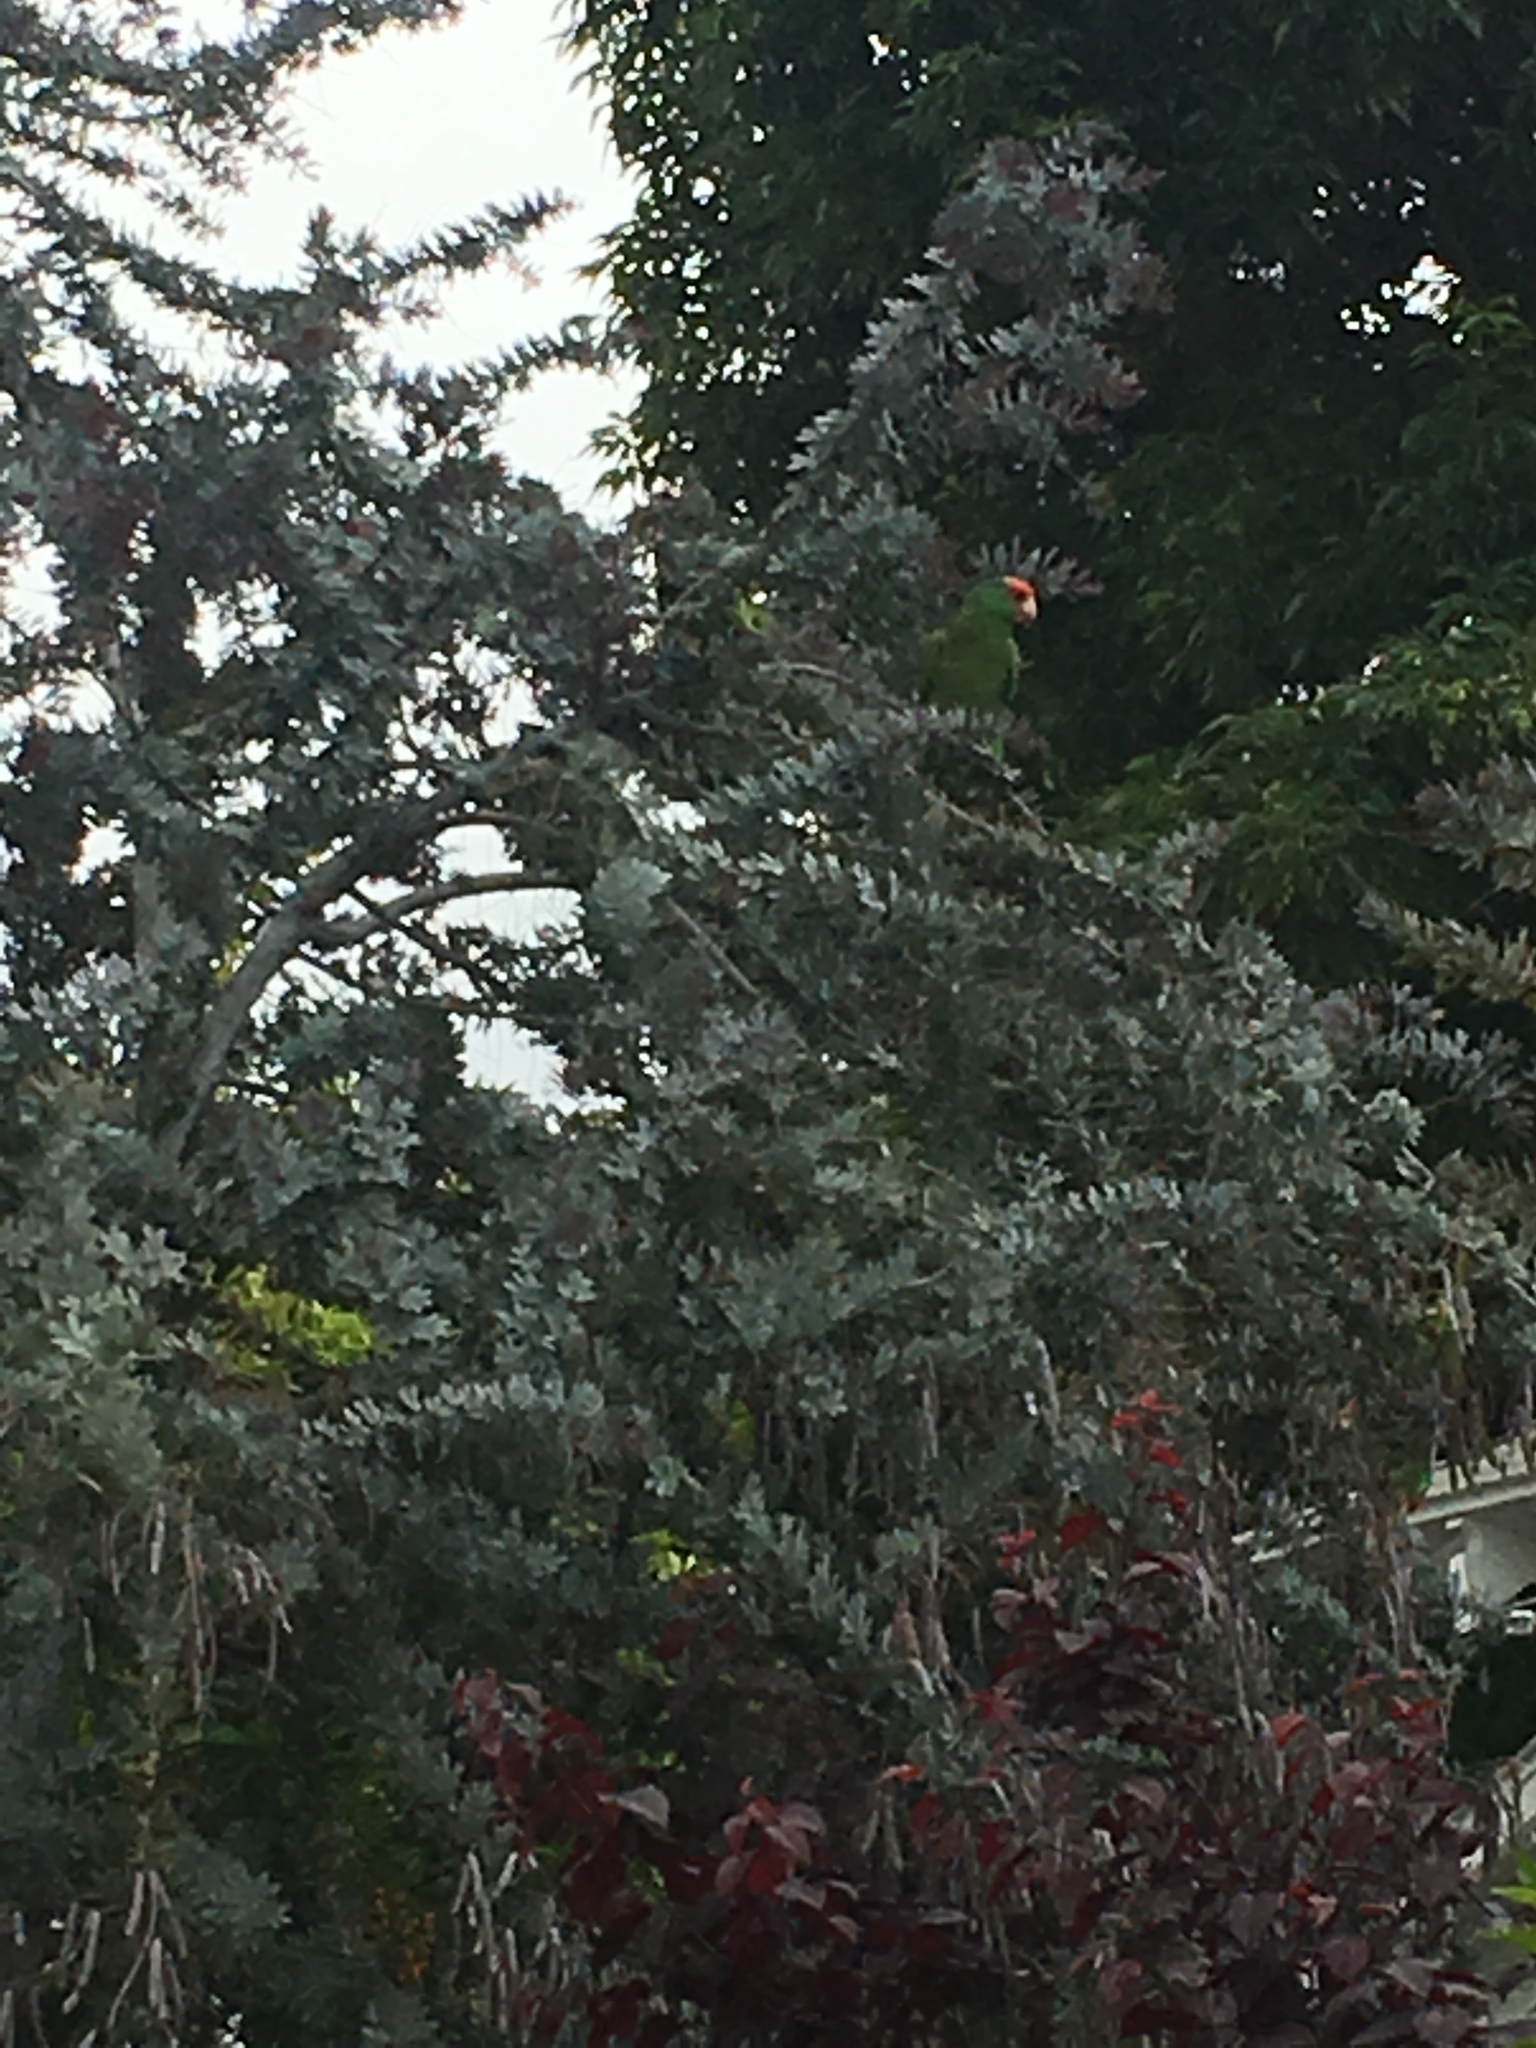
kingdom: Animalia
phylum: Chordata
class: Aves
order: Psittaciformes
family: Psittacidae
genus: Amazona
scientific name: Amazona viridigenalis
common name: Red-crowned amazon
